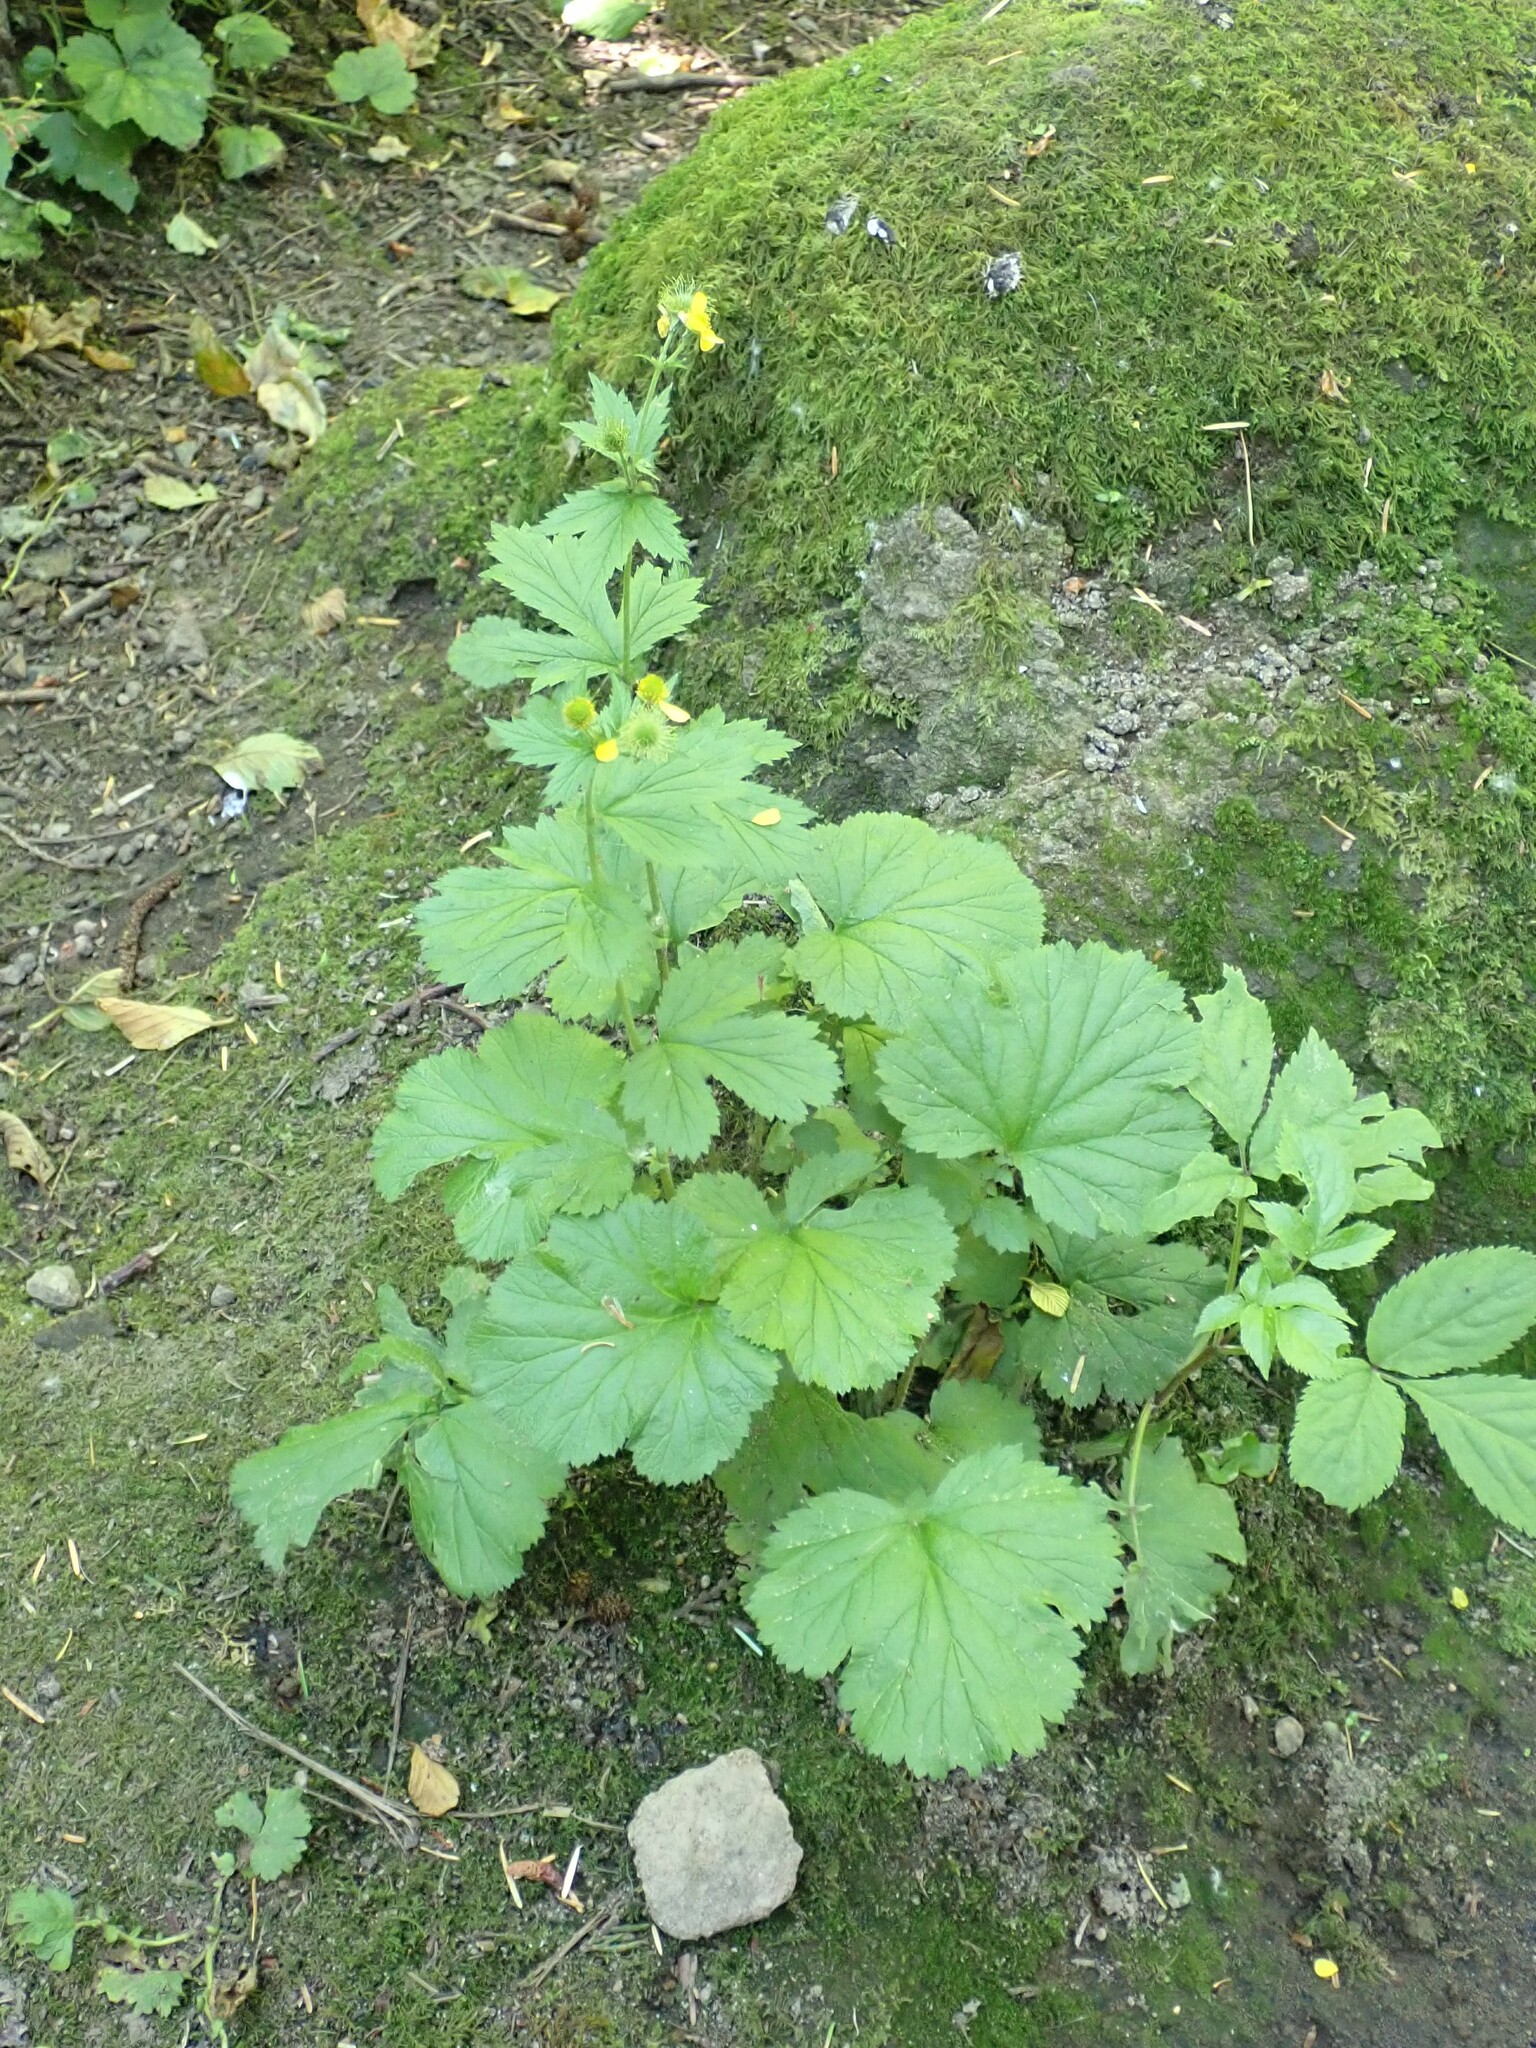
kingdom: Plantae
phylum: Tracheophyta
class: Magnoliopsida
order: Rosales
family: Rosaceae
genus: Geum
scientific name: Geum macrophyllum
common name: Large-leaved avens
